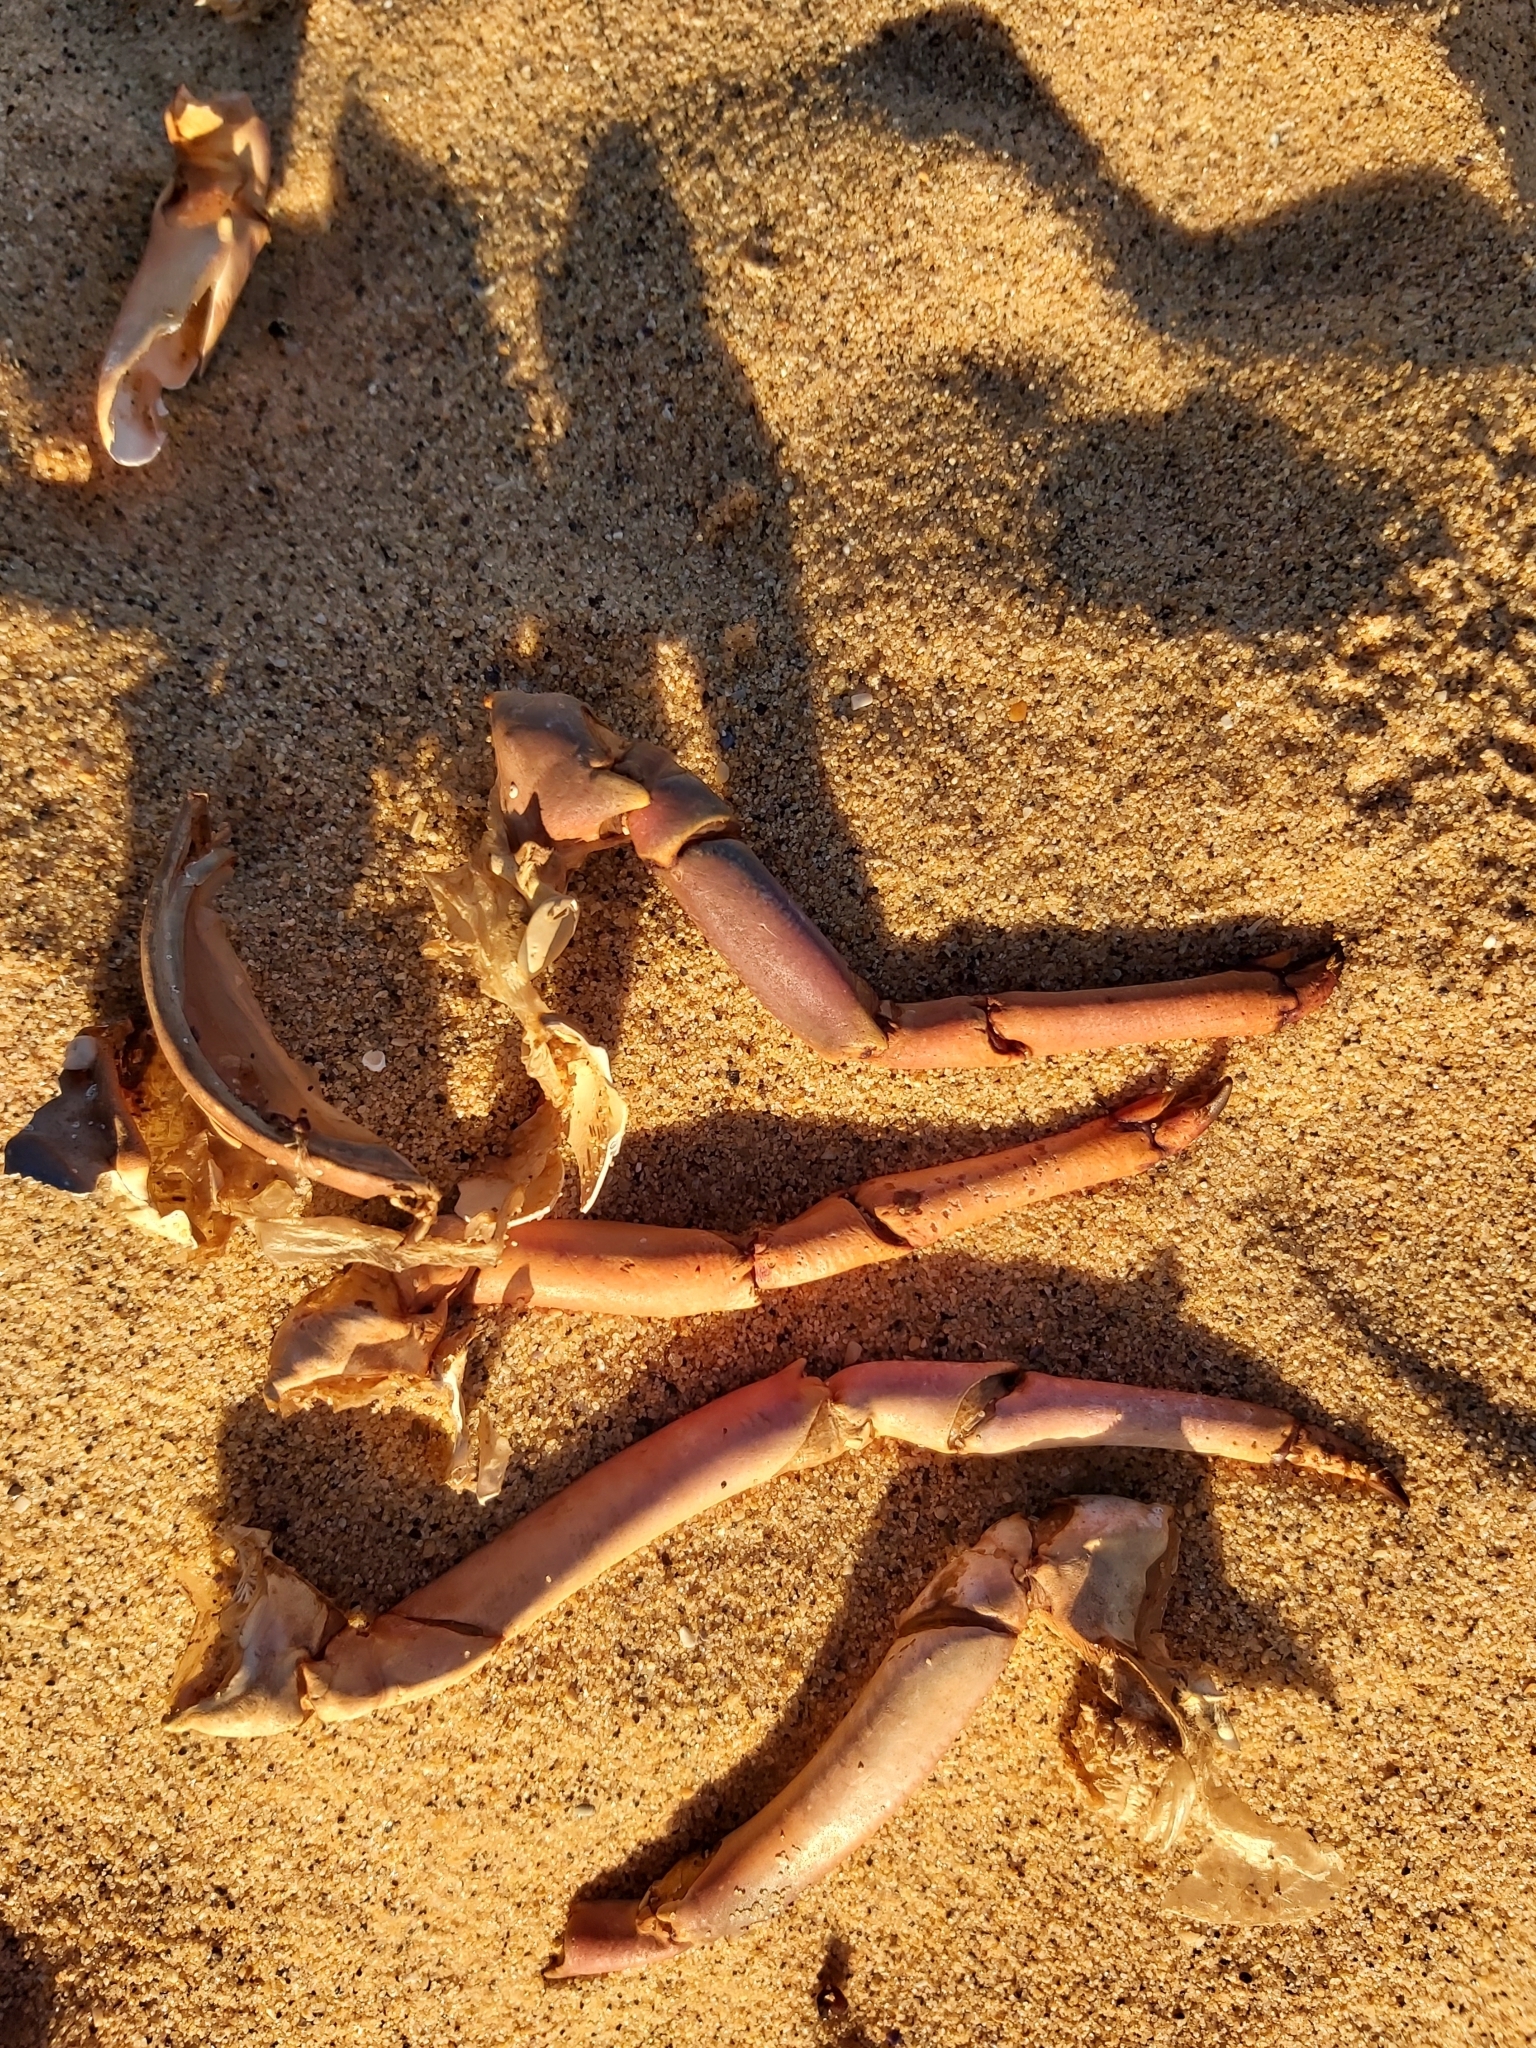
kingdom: Animalia
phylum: Arthropoda
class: Malacostraca
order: Decapoda
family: Palinuridae
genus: Sagmariasus
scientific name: Sagmariasus verreauxi
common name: Green rock lobster
